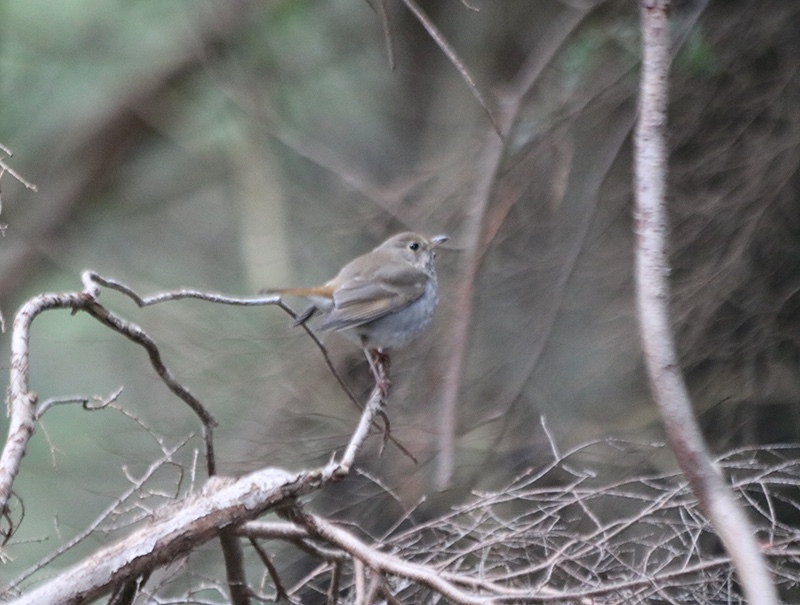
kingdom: Animalia
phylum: Chordata
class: Aves
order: Passeriformes
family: Turdidae
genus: Catharus
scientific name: Catharus guttatus
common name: Hermit thrush
